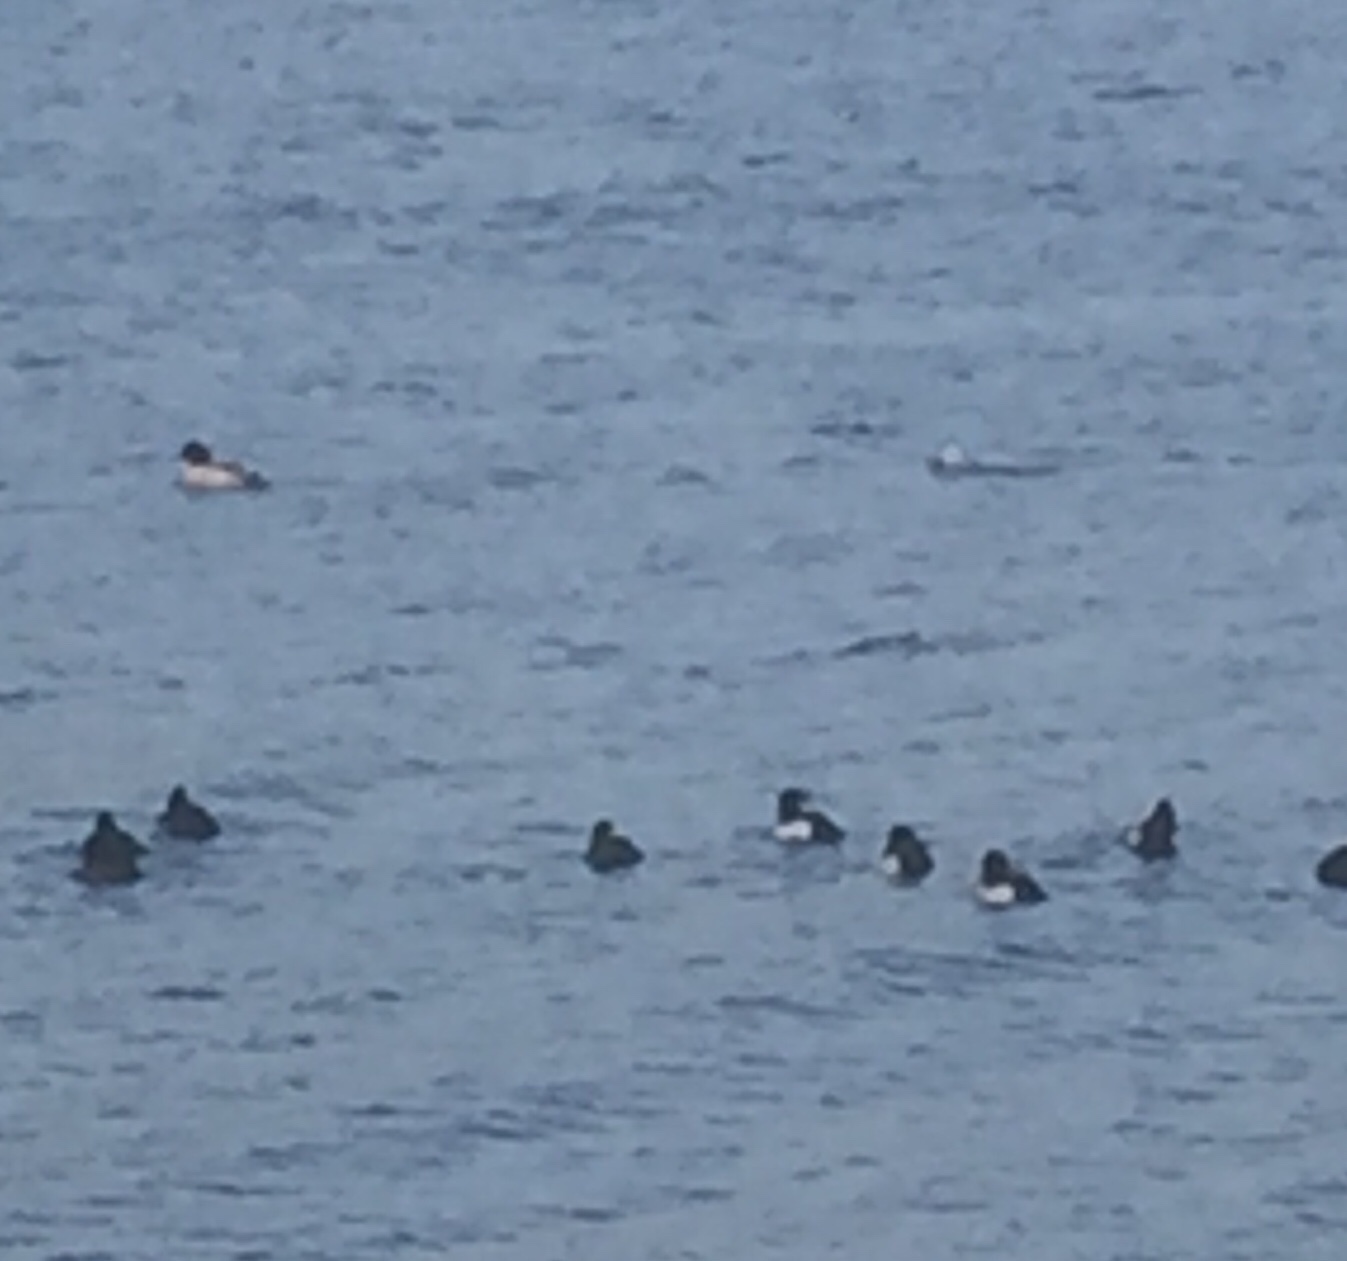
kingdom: Animalia
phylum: Chordata
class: Aves
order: Anseriformes
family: Anatidae
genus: Mergellus
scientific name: Mergellus albellus
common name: Smew
